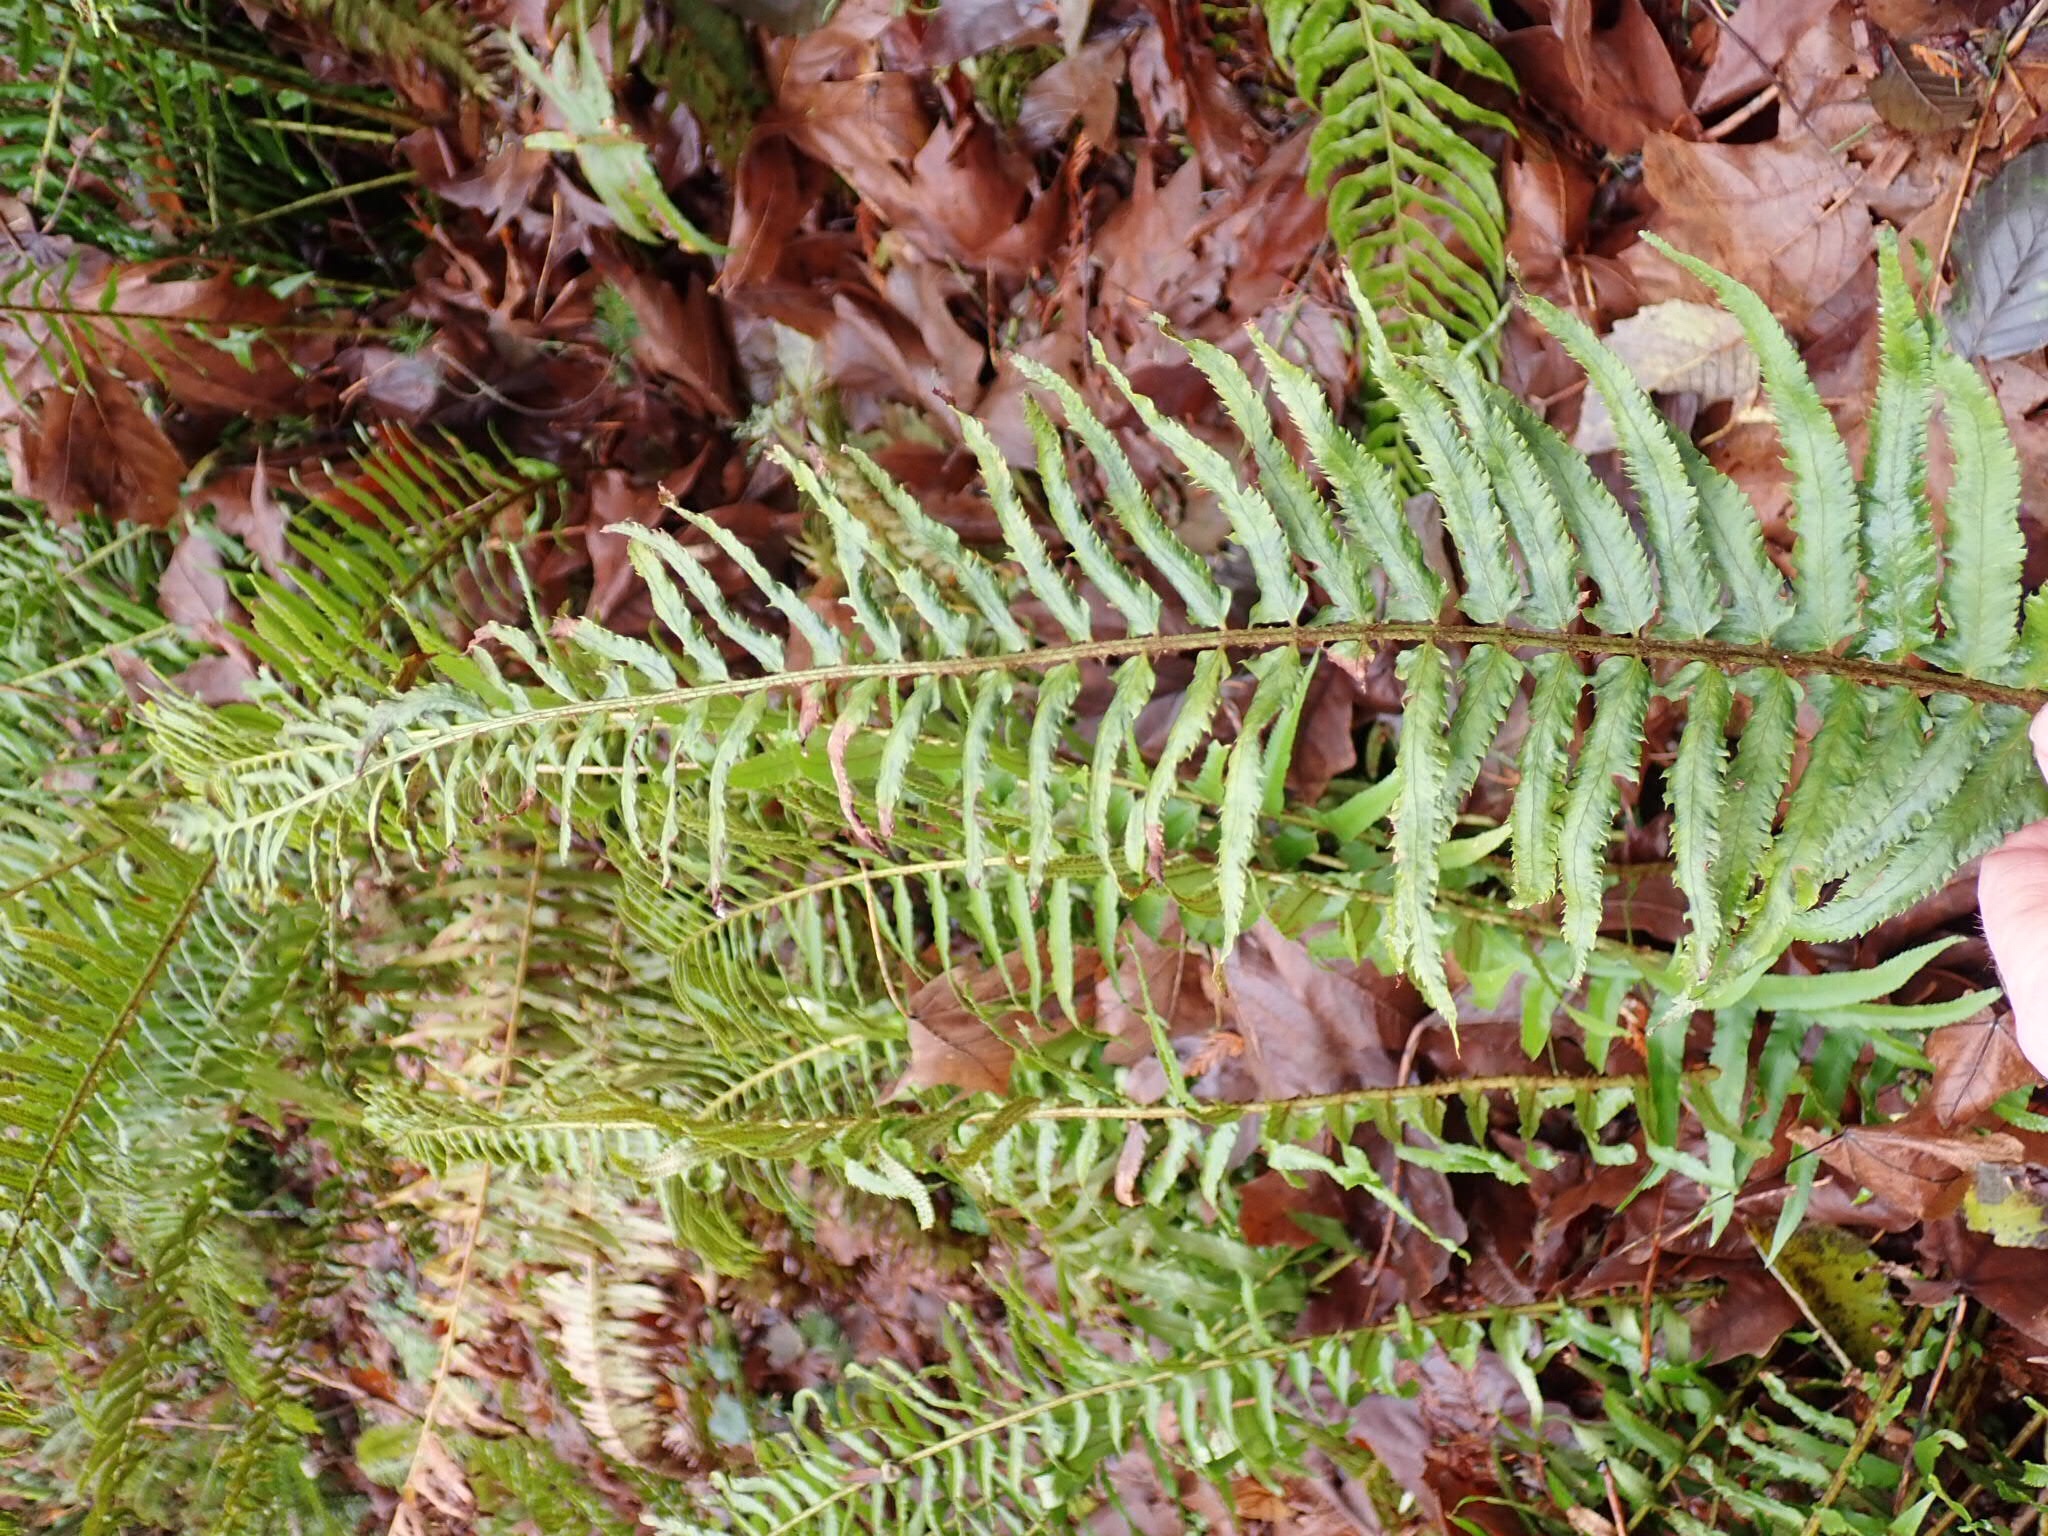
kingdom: Plantae
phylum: Tracheophyta
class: Polypodiopsida
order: Polypodiales
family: Dryopteridaceae
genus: Polystichum
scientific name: Polystichum munitum
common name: Western sword-fern
